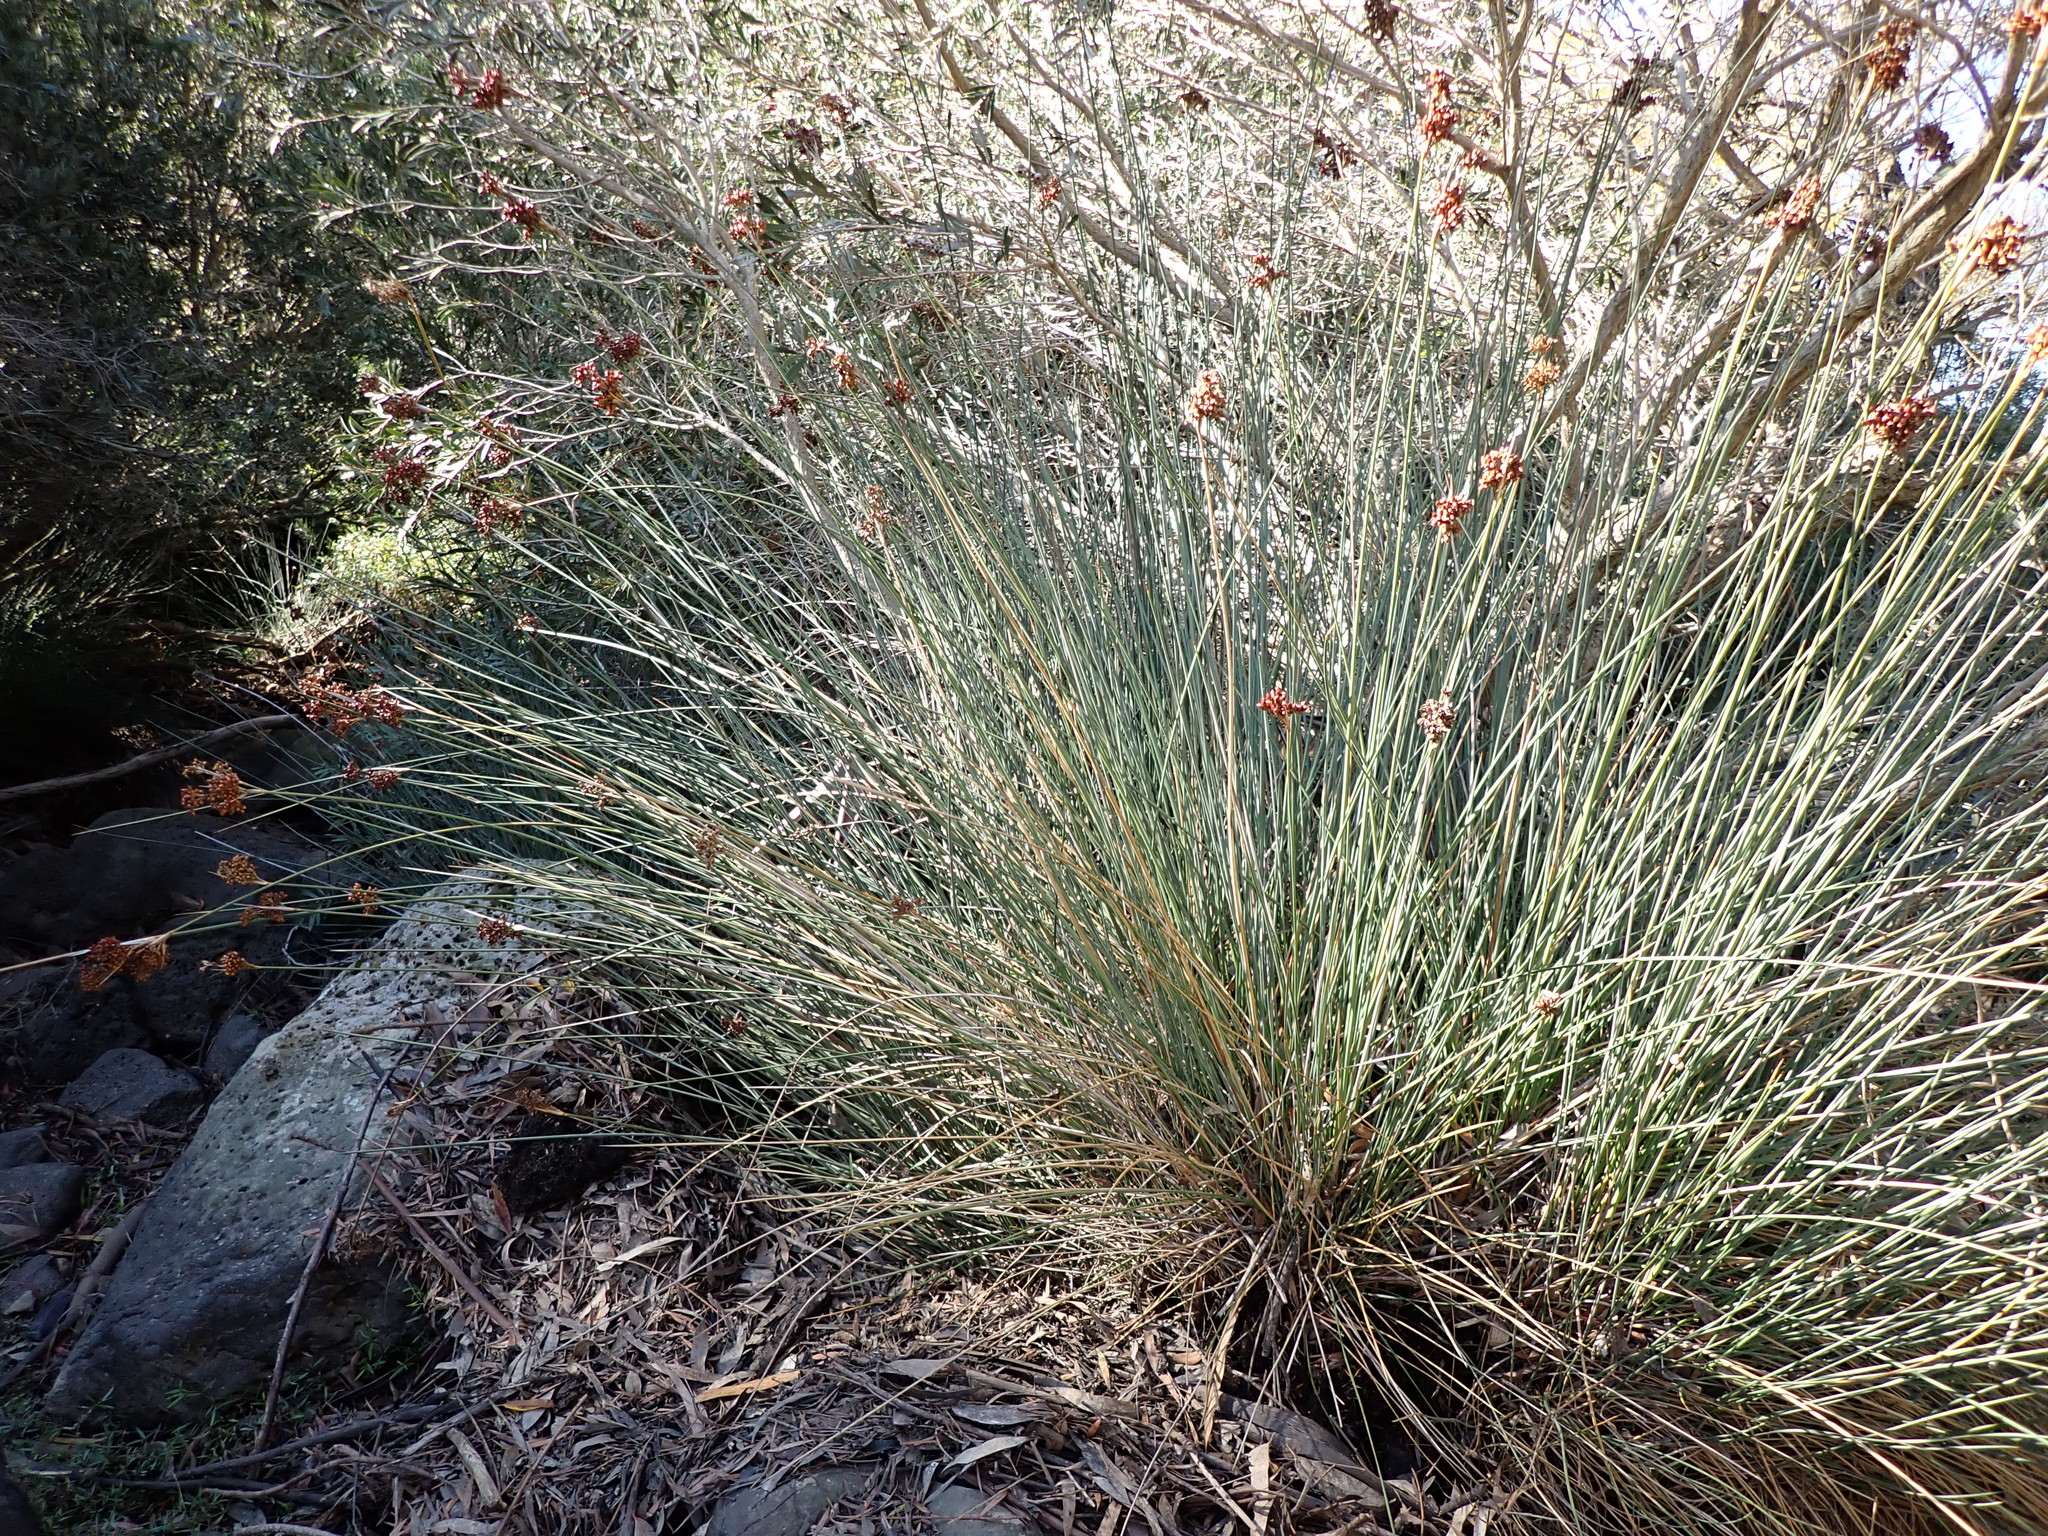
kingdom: Plantae
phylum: Tracheophyta
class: Liliopsida
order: Poales
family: Juncaceae
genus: Juncus
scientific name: Juncus acutus
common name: Sharp rush
